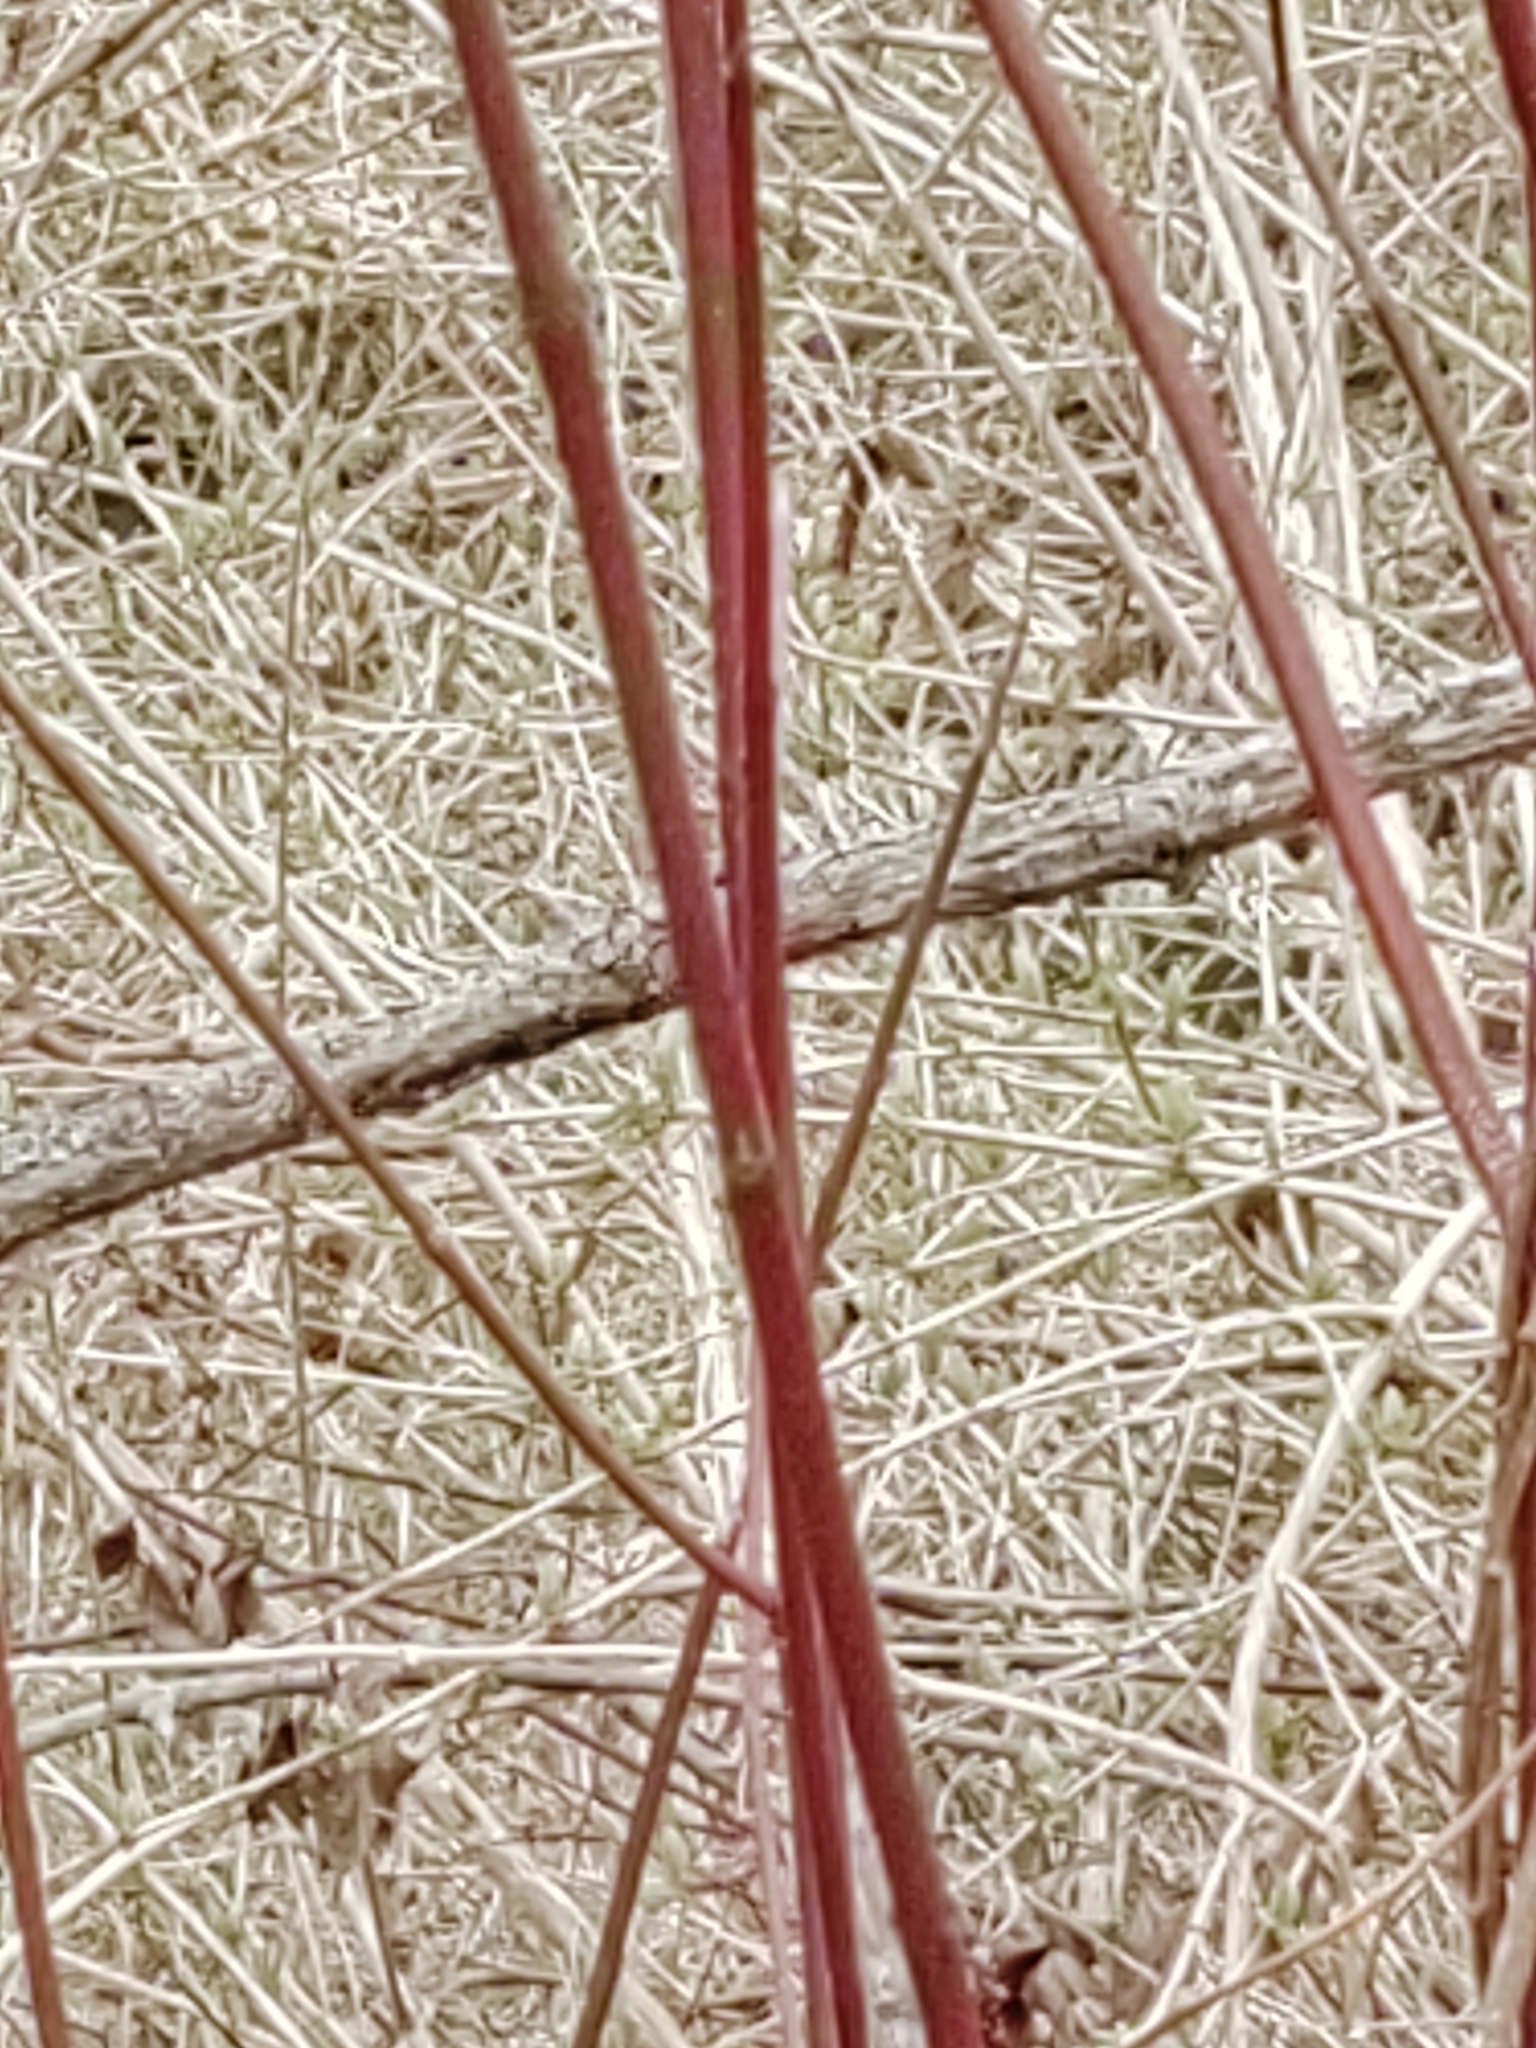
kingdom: Plantae
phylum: Tracheophyta
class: Magnoliopsida
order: Cornales
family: Cornaceae
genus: Cornus
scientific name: Cornus sericea
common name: Red-osier dogwood
